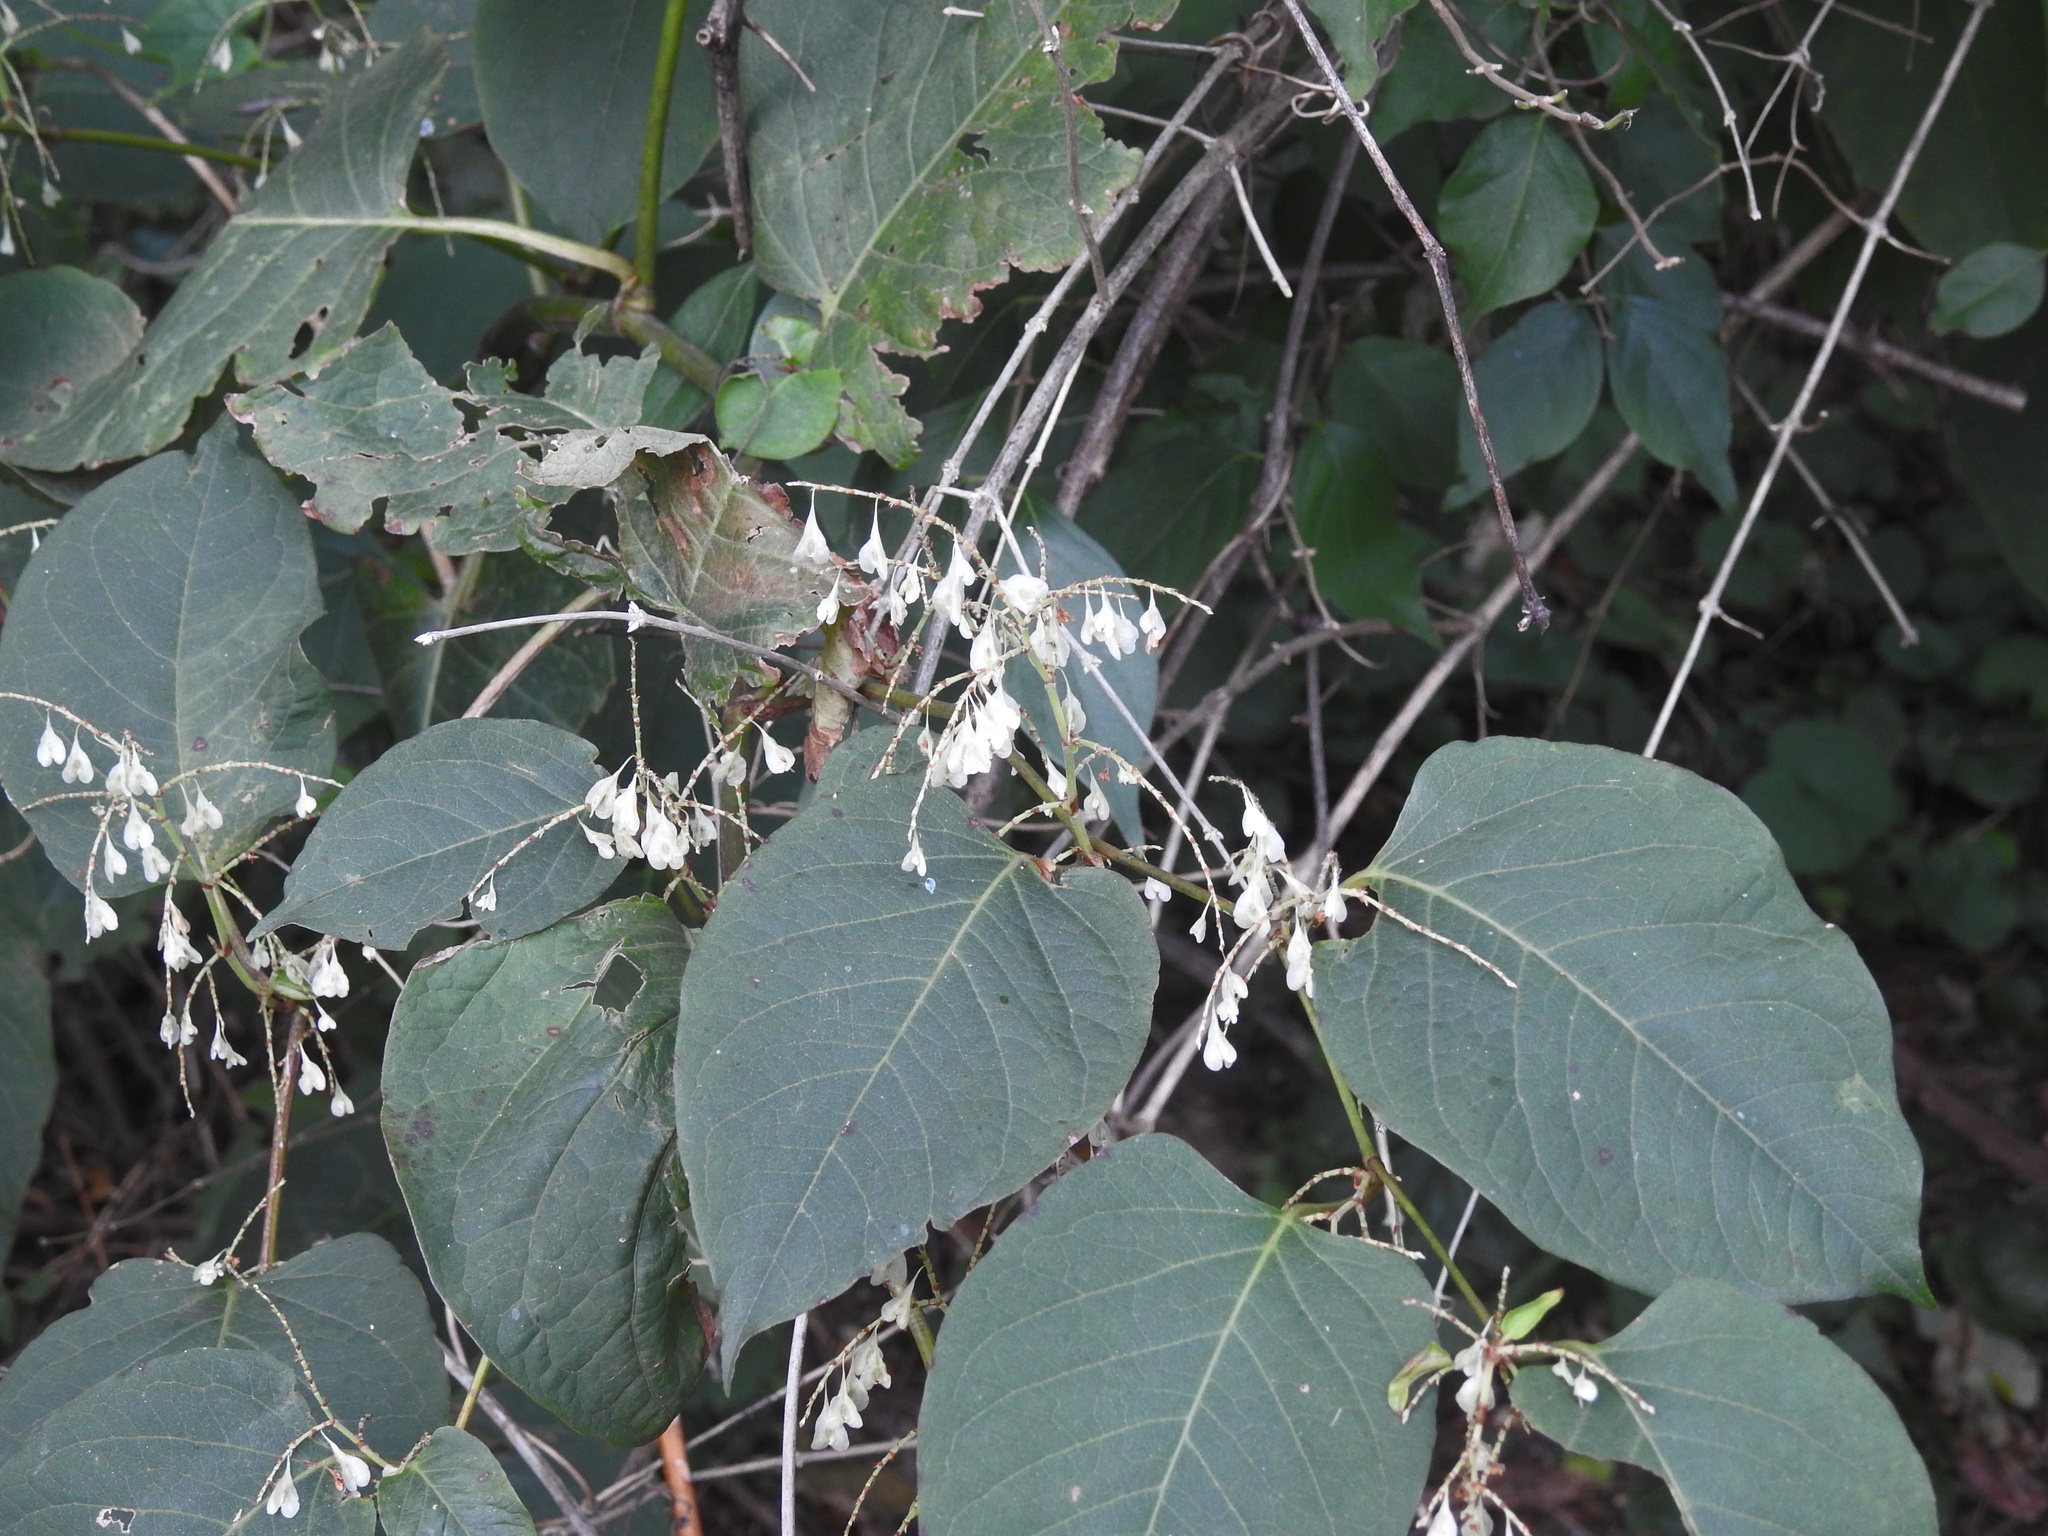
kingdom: Plantae
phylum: Tracheophyta
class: Magnoliopsida
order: Caryophyllales
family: Polygonaceae
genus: Reynoutria
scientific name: Reynoutria japonica
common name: Japanese knotweed
